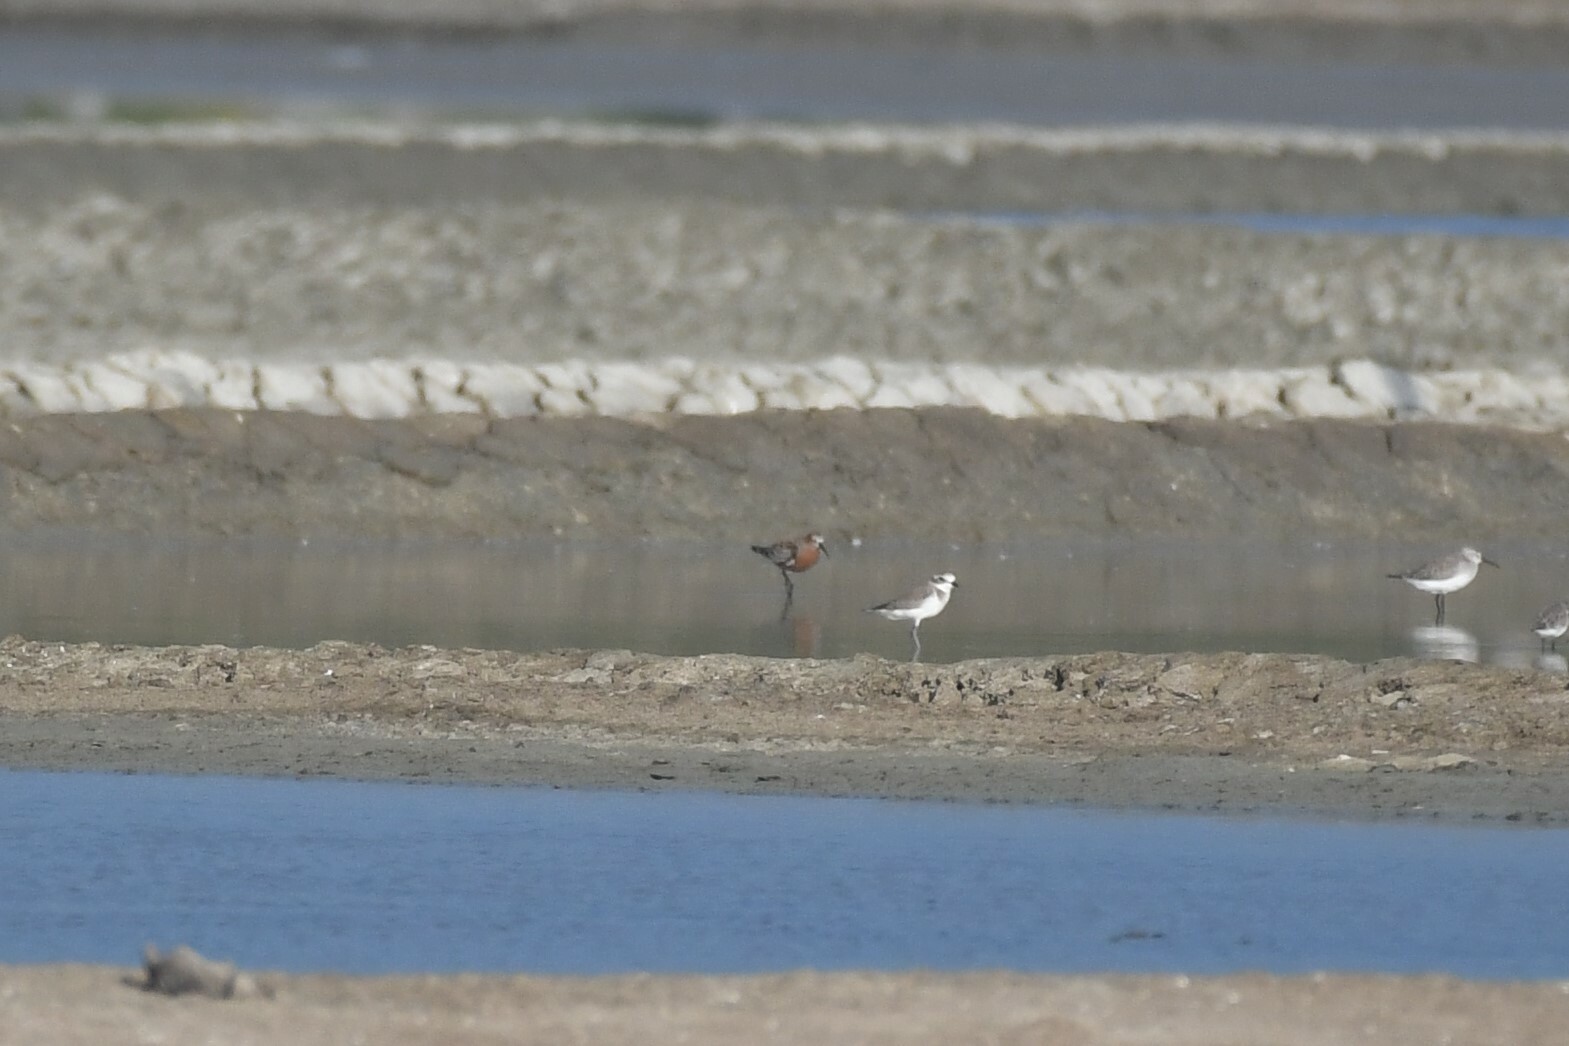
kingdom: Animalia
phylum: Chordata
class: Aves
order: Charadriiformes
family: Scolopacidae
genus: Calidris
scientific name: Calidris ferruginea
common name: Curlew sandpiper
